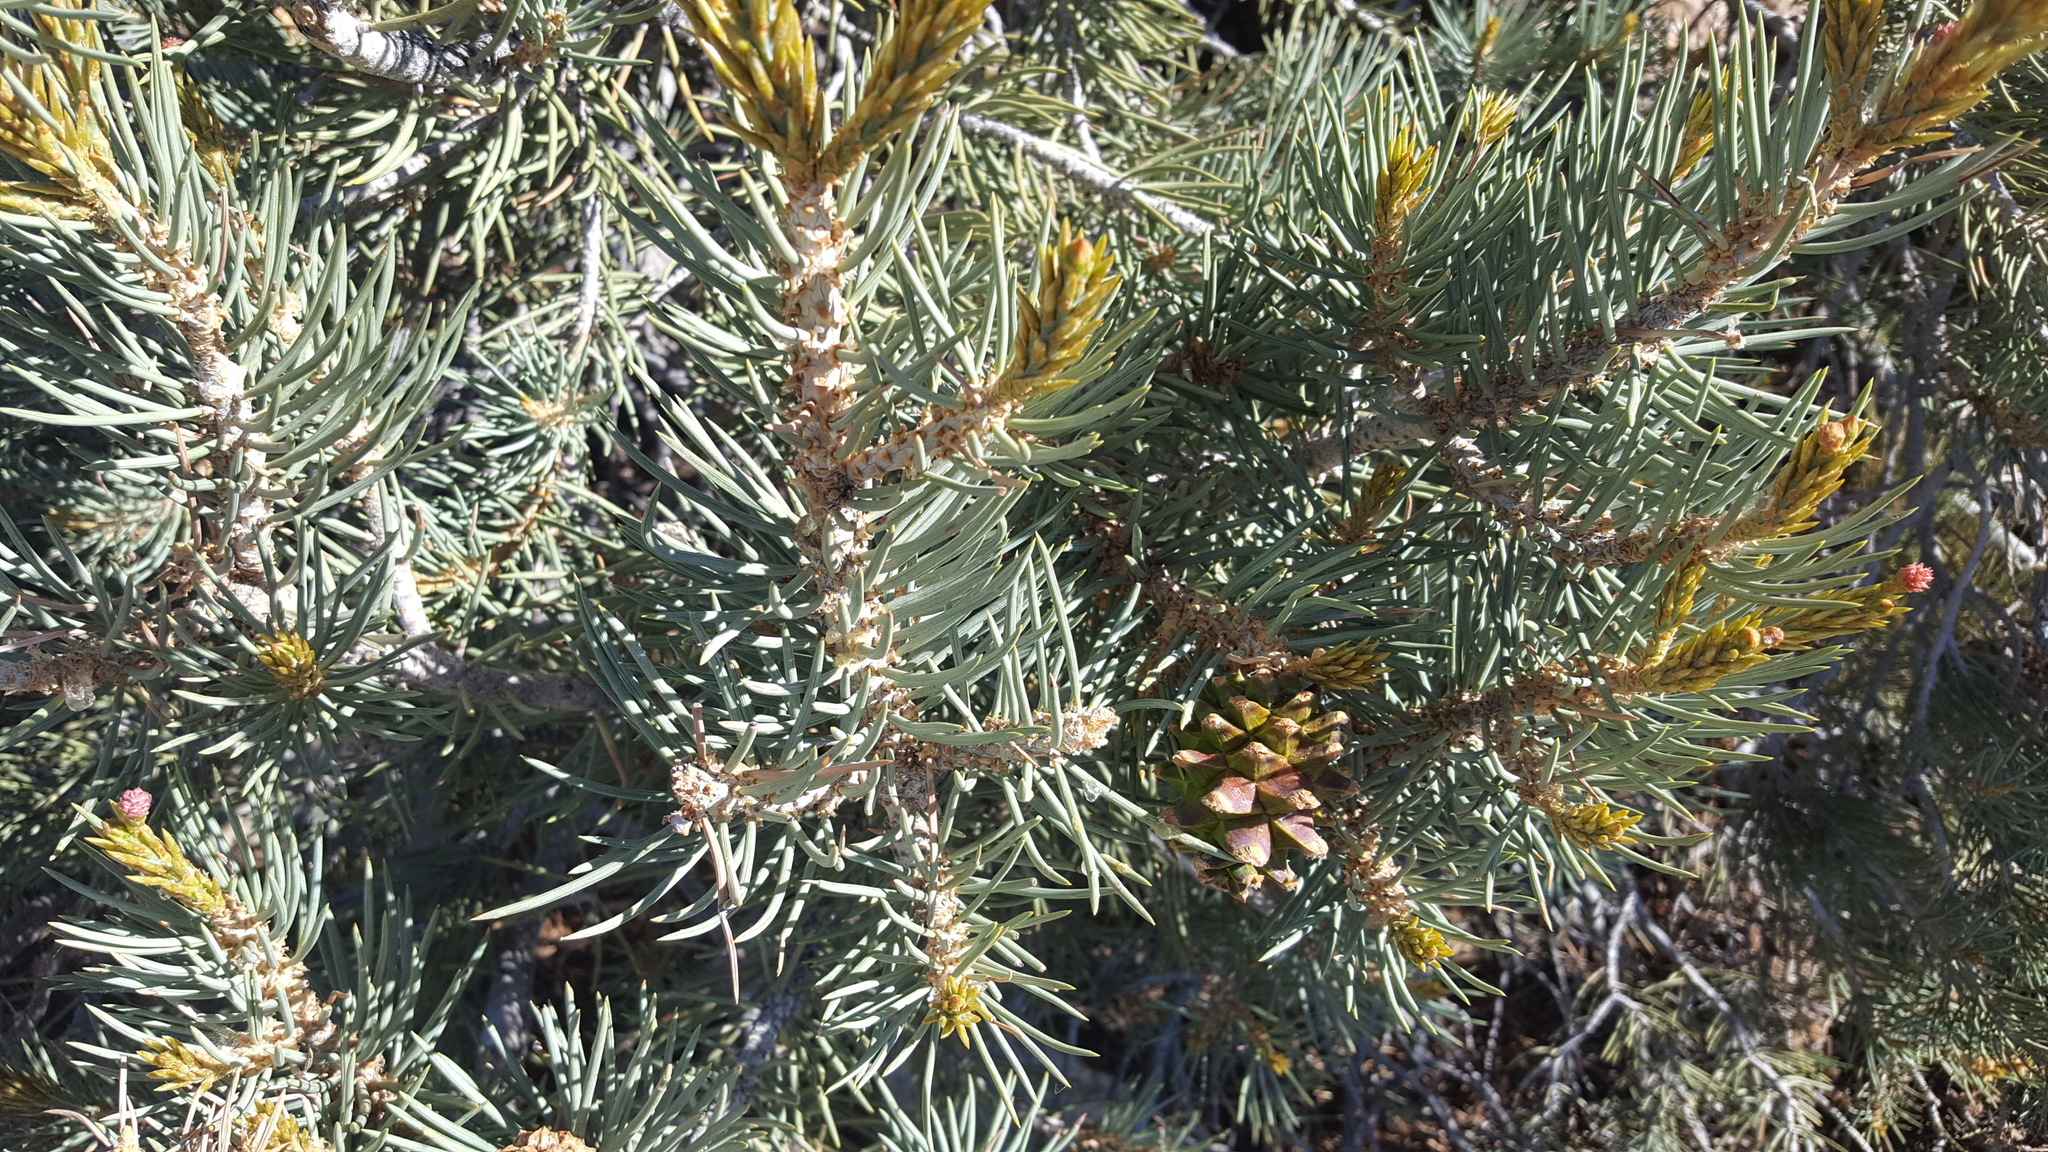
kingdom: Plantae
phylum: Tracheophyta
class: Pinopsida
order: Pinales
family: Pinaceae
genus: Pinus
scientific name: Pinus monophylla
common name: One-leaved nut pine
